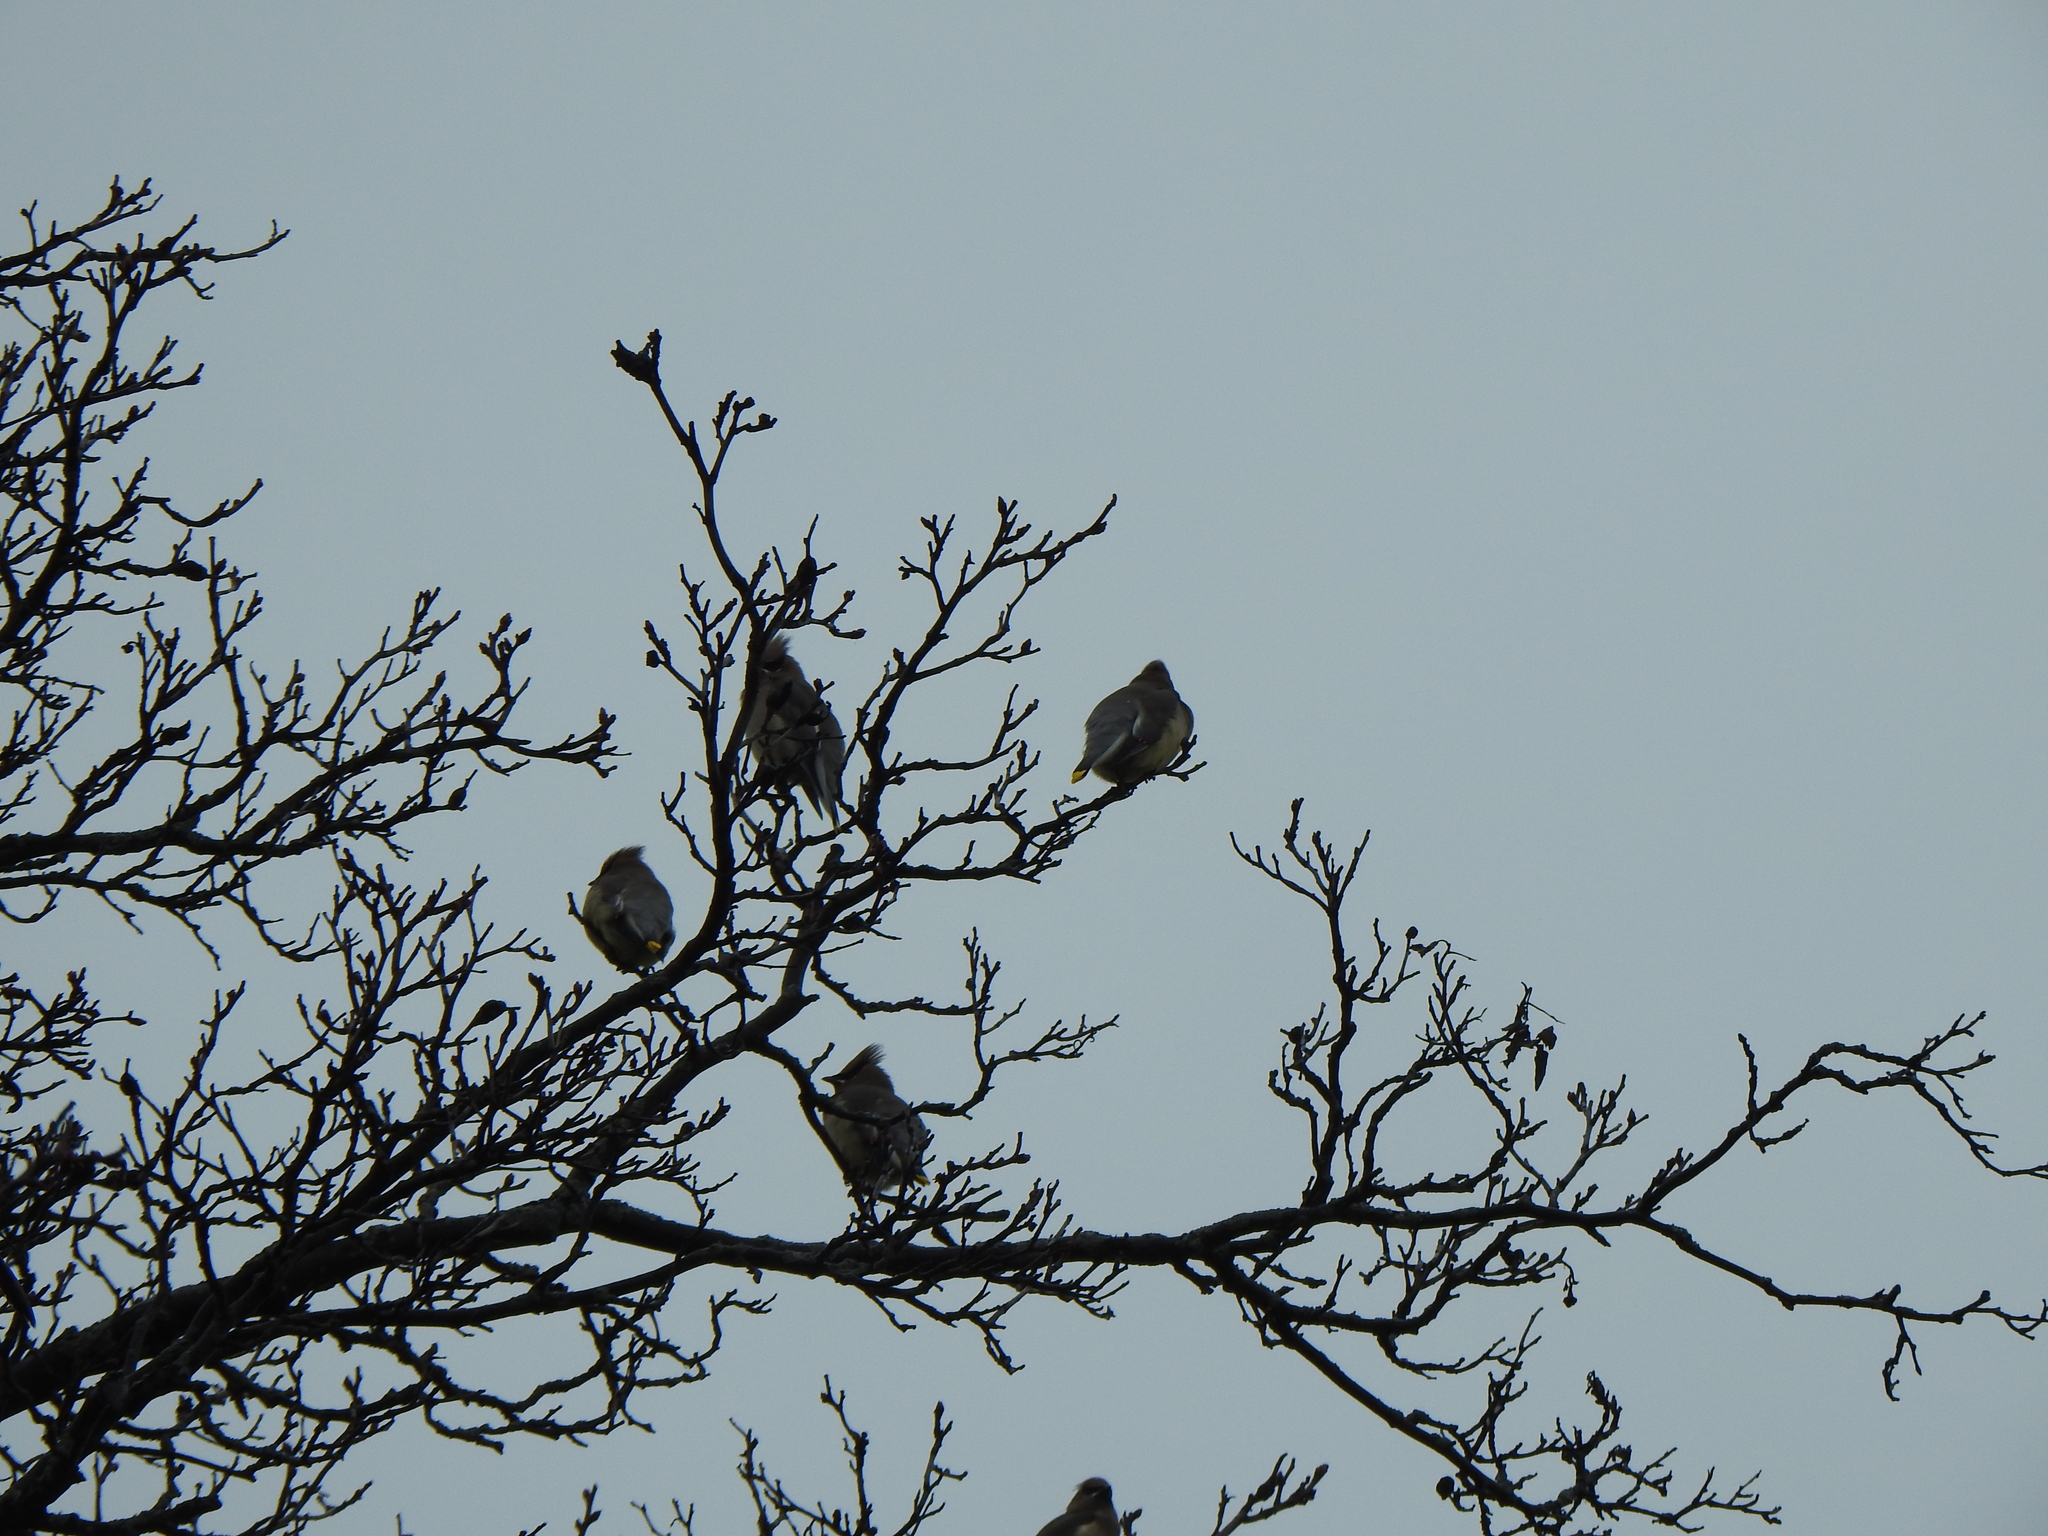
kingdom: Animalia
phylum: Chordata
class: Aves
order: Passeriformes
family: Bombycillidae
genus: Bombycilla
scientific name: Bombycilla cedrorum
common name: Cedar waxwing
